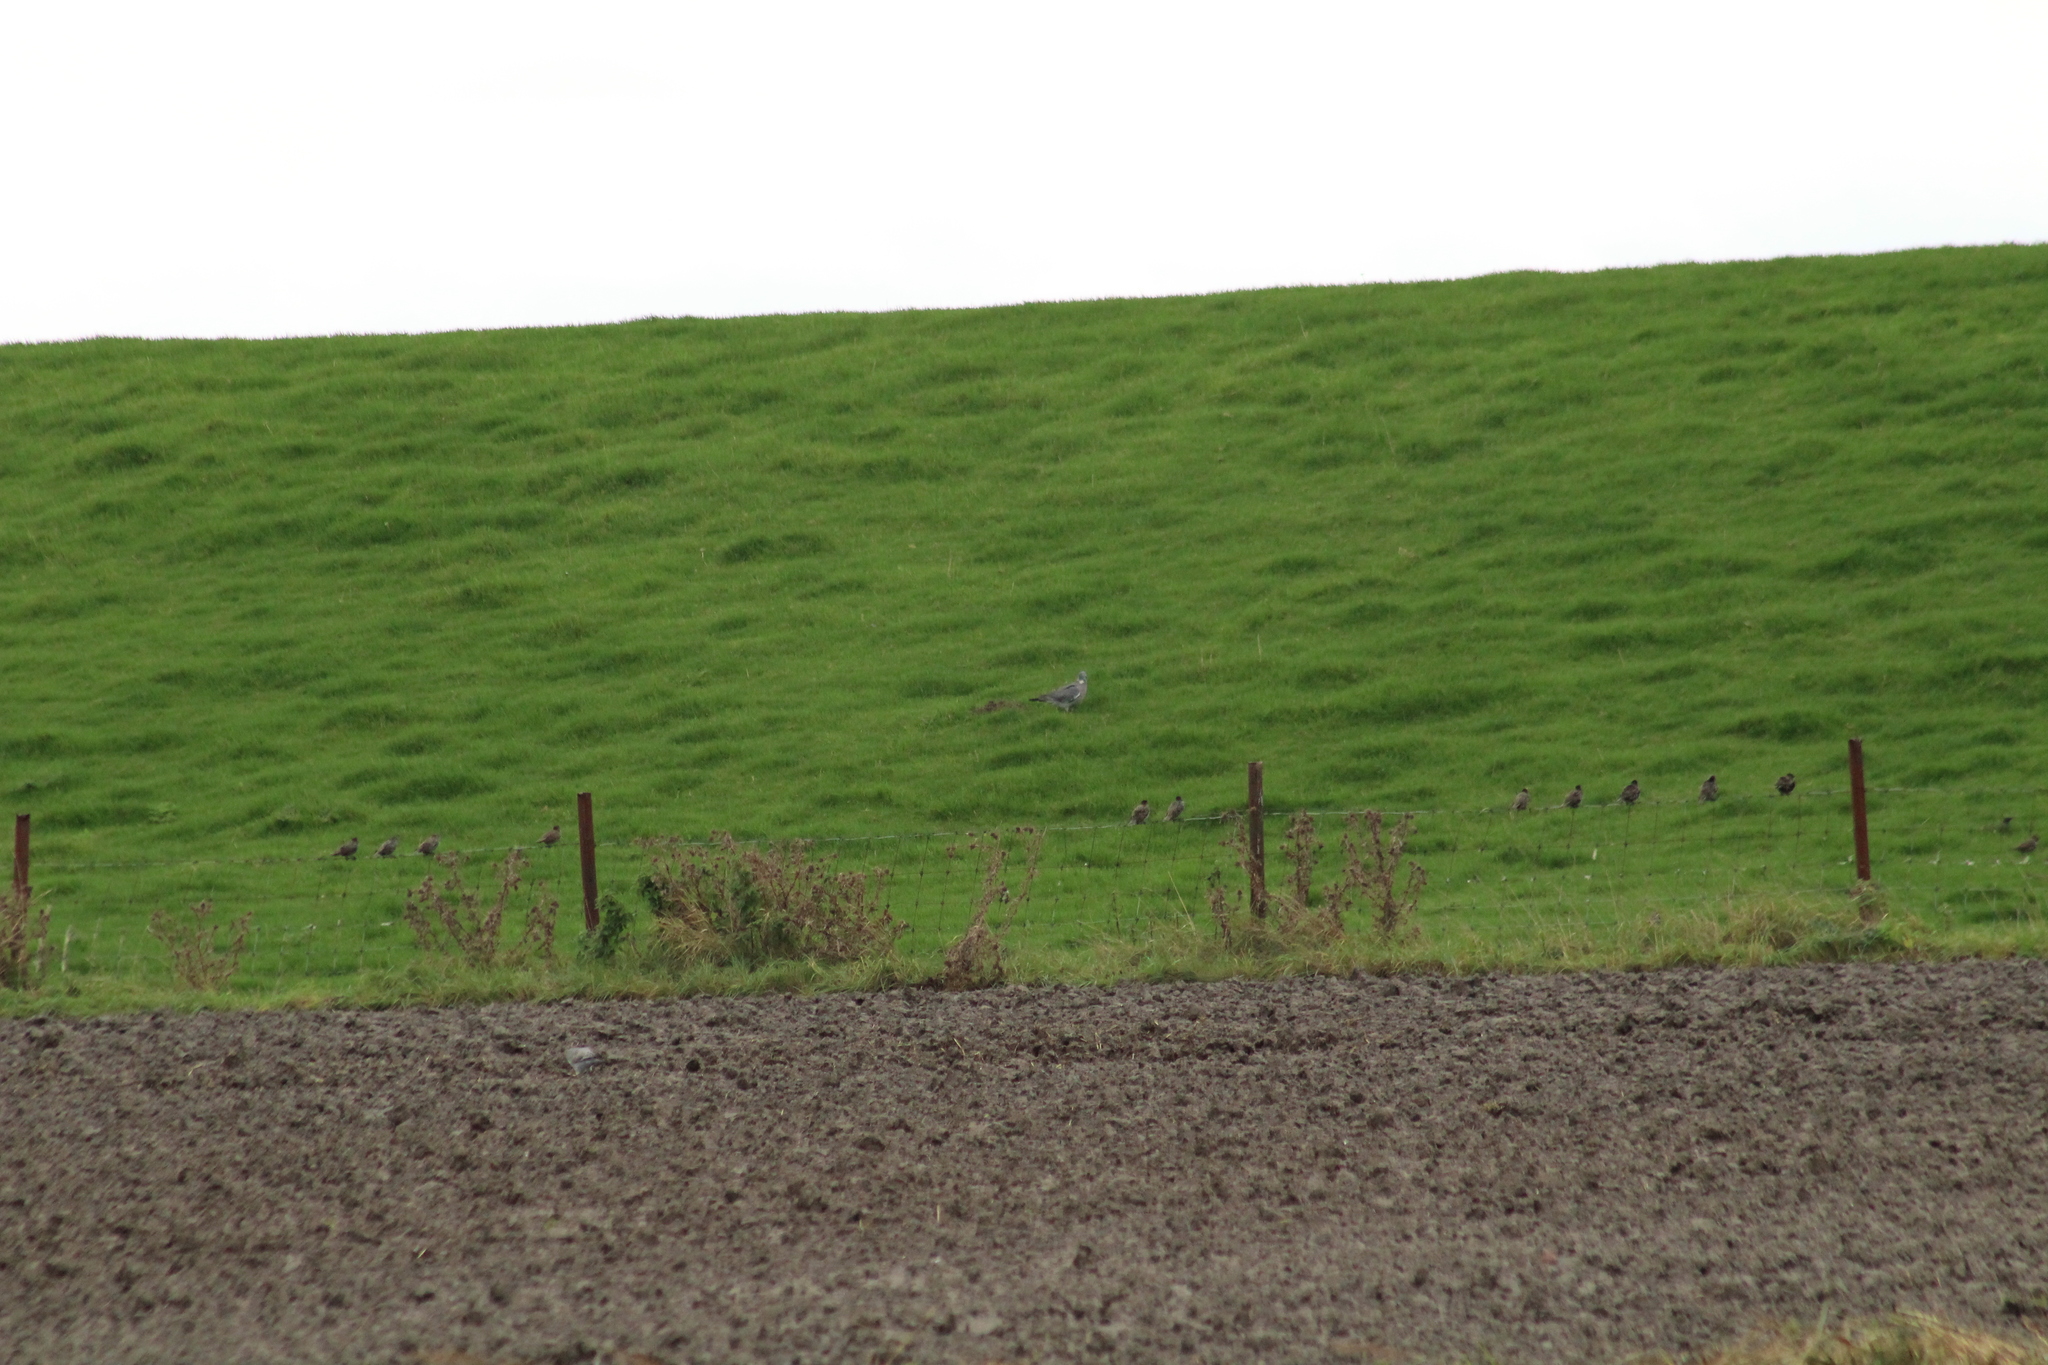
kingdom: Animalia
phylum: Chordata
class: Aves
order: Columbiformes
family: Columbidae
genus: Columba
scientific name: Columba palumbus
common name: Common wood pigeon
